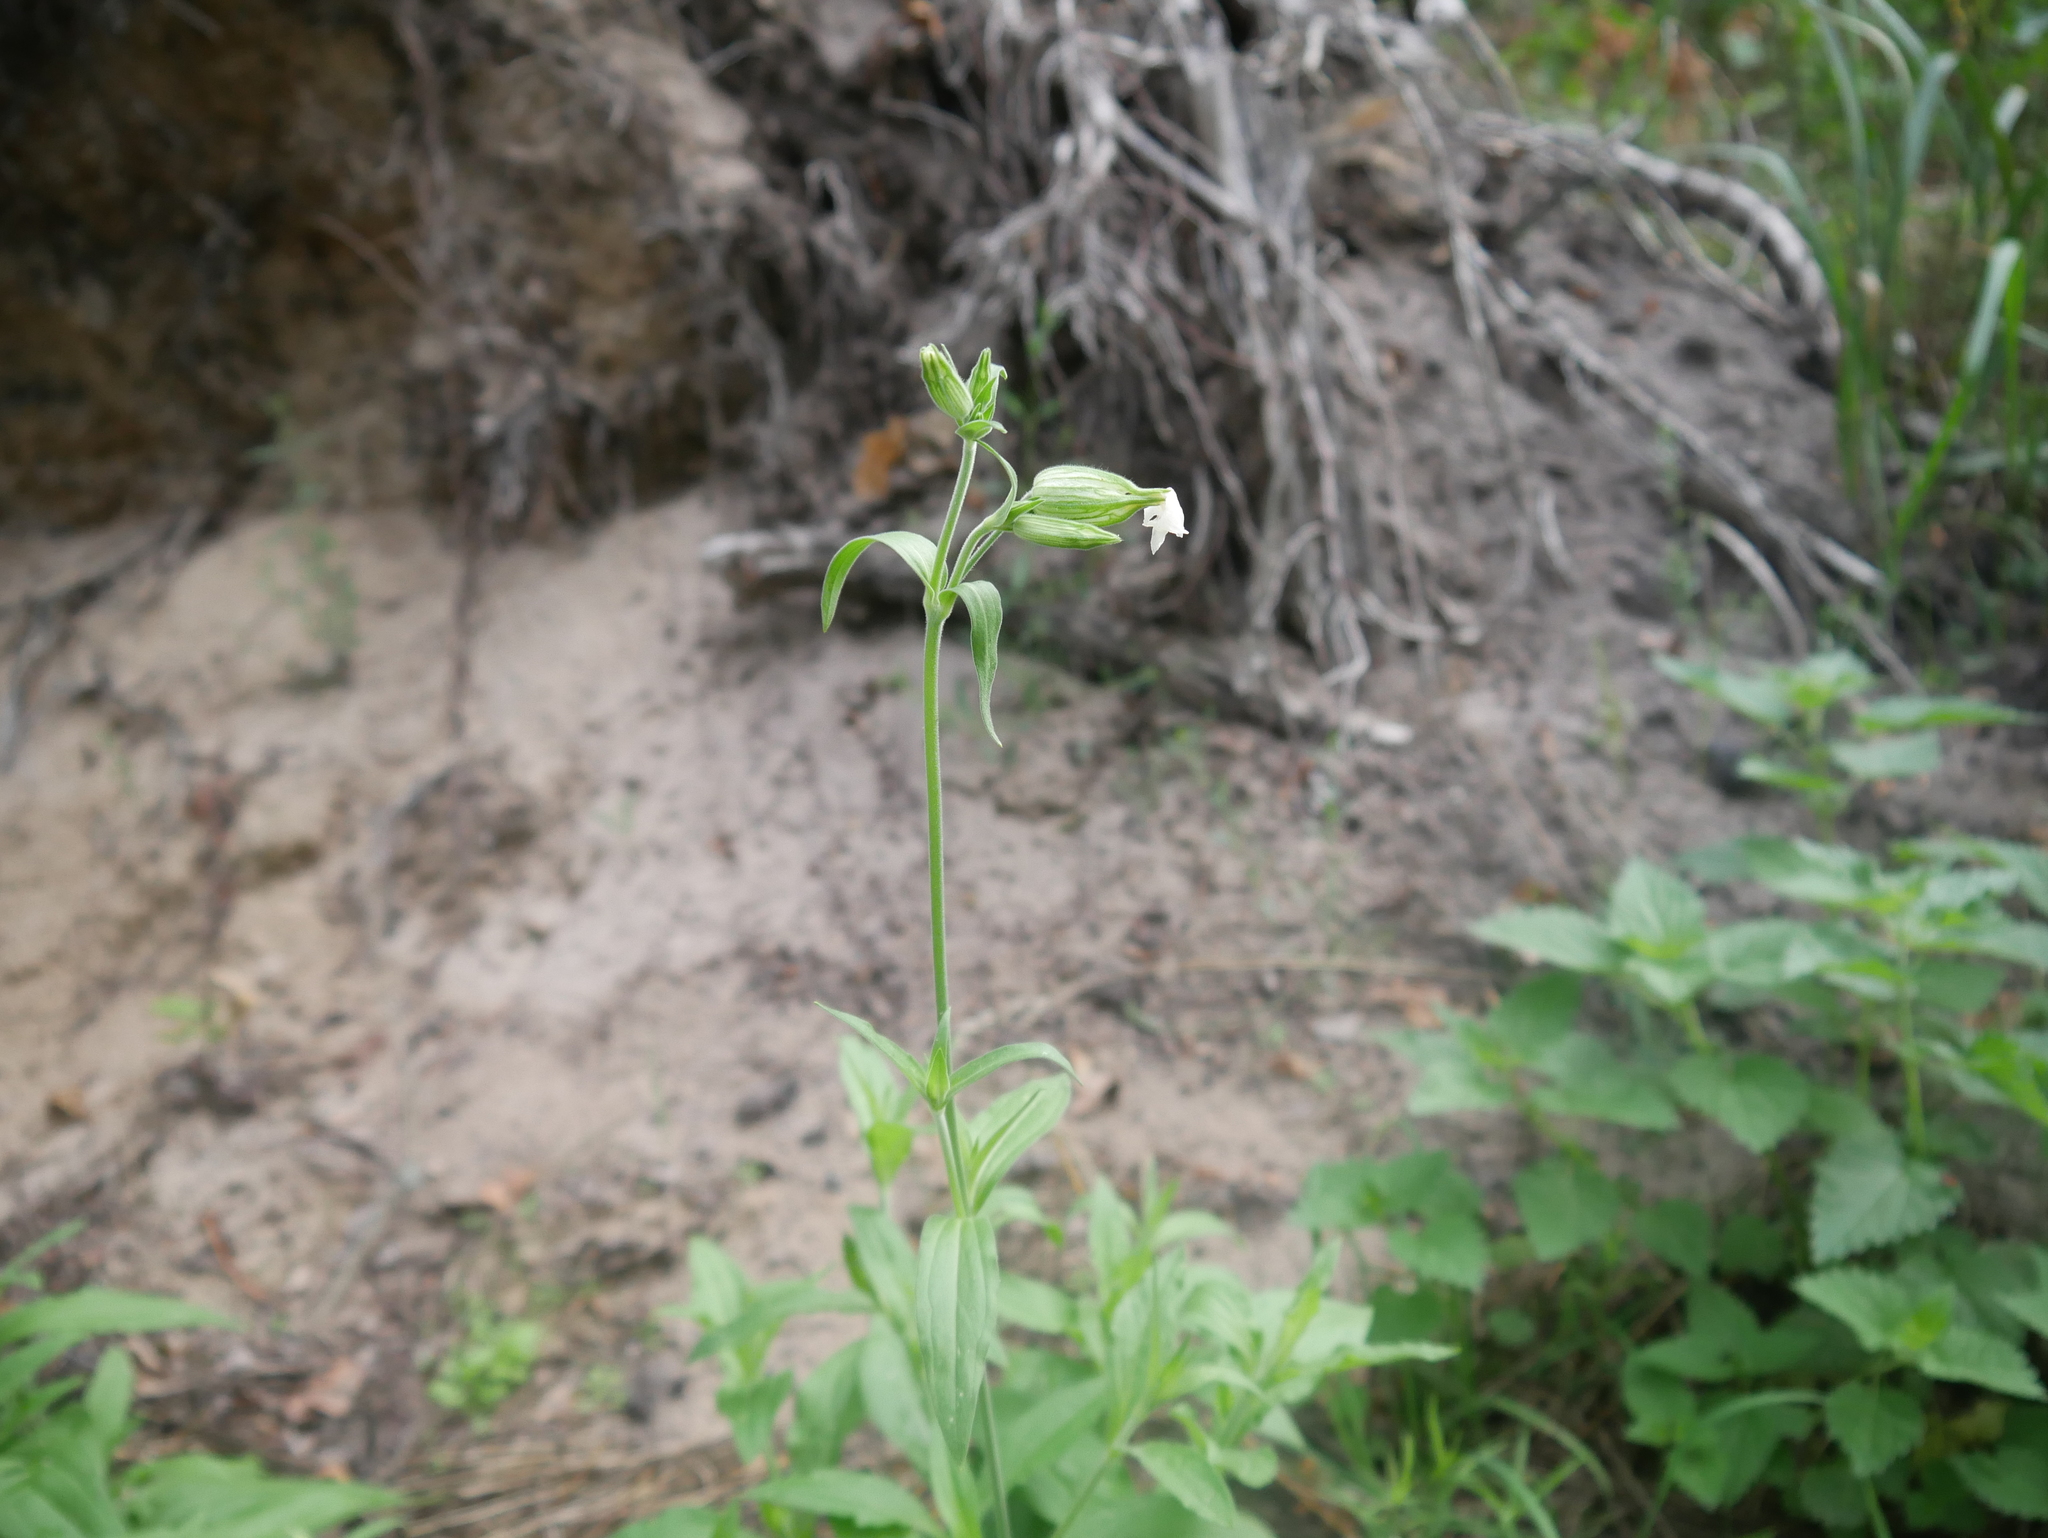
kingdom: Plantae
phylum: Tracheophyta
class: Magnoliopsida
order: Caryophyllales
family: Caryophyllaceae
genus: Silene
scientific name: Silene latifolia
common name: White campion
